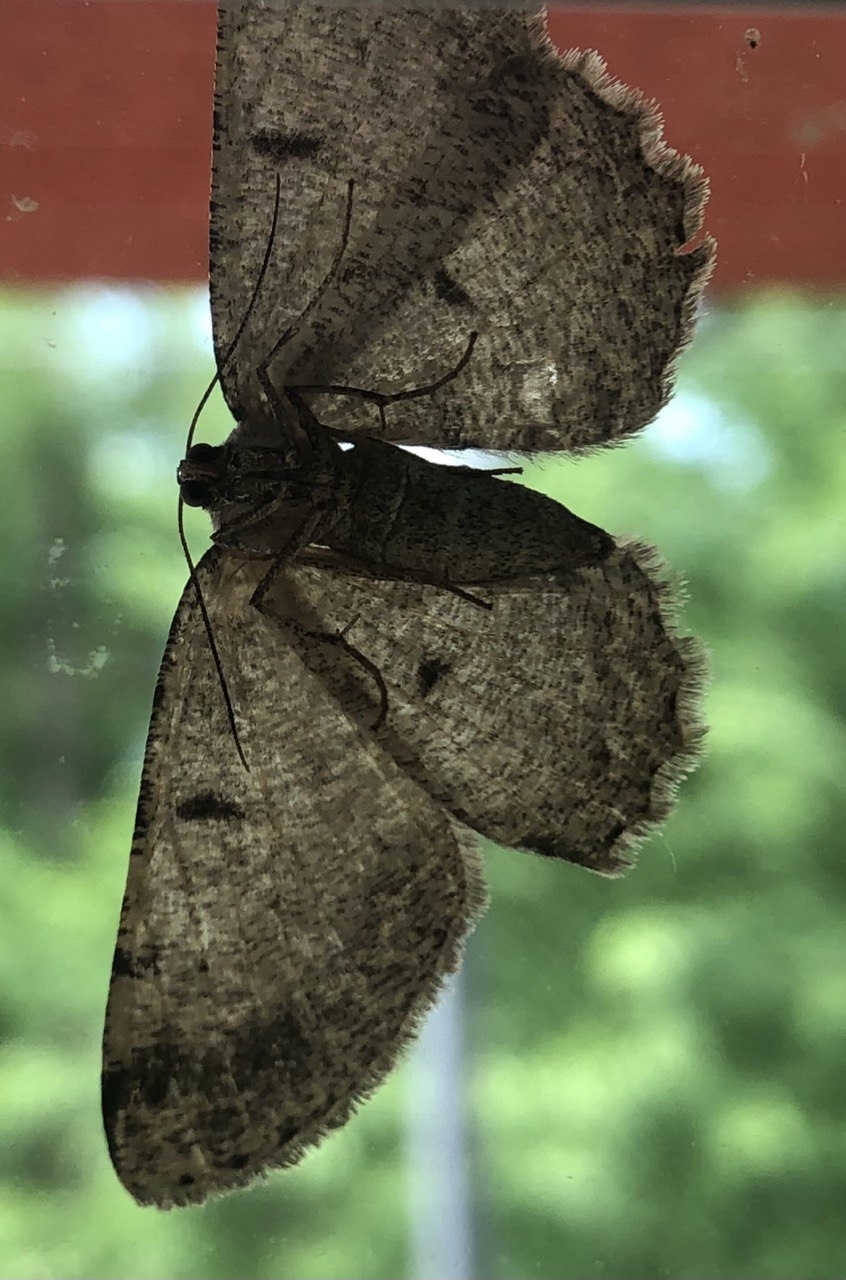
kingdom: Animalia
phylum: Arthropoda
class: Insecta
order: Lepidoptera
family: Geometridae
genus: Hypomecis
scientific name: Hypomecis punctinalis
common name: Pale oak beauty
